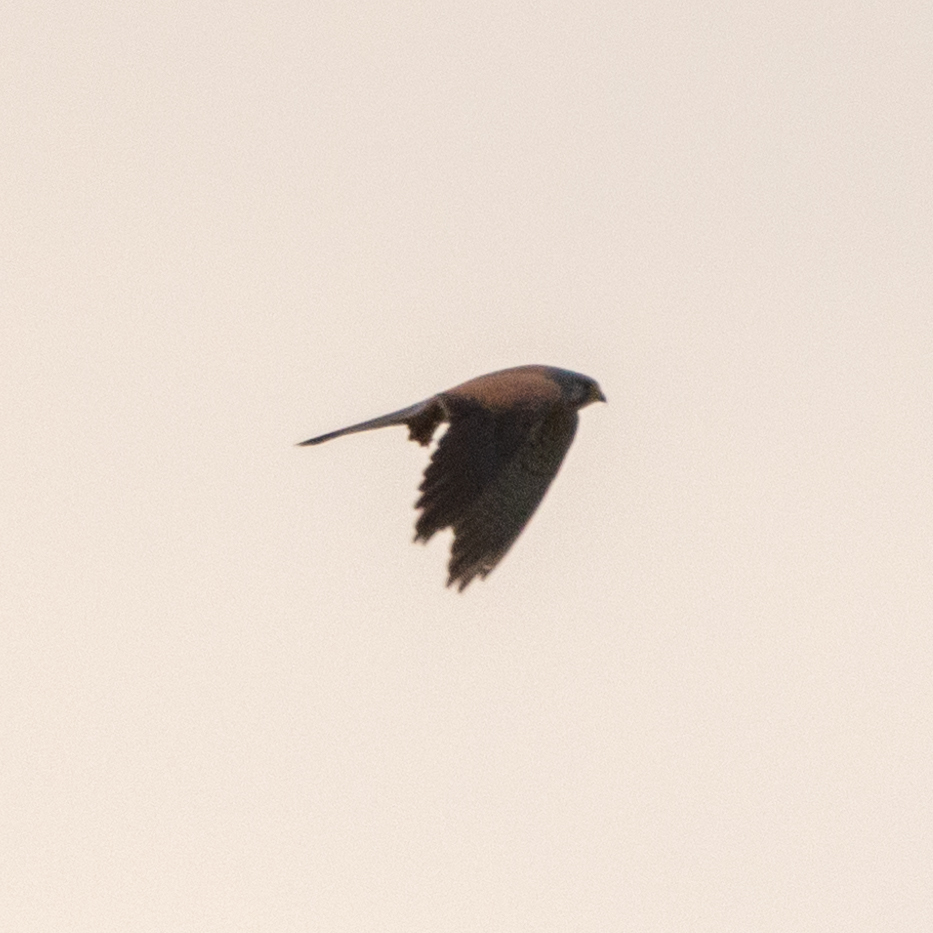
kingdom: Animalia
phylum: Chordata
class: Aves
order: Falconiformes
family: Falconidae
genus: Falco
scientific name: Falco tinnunculus
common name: Common kestrel
